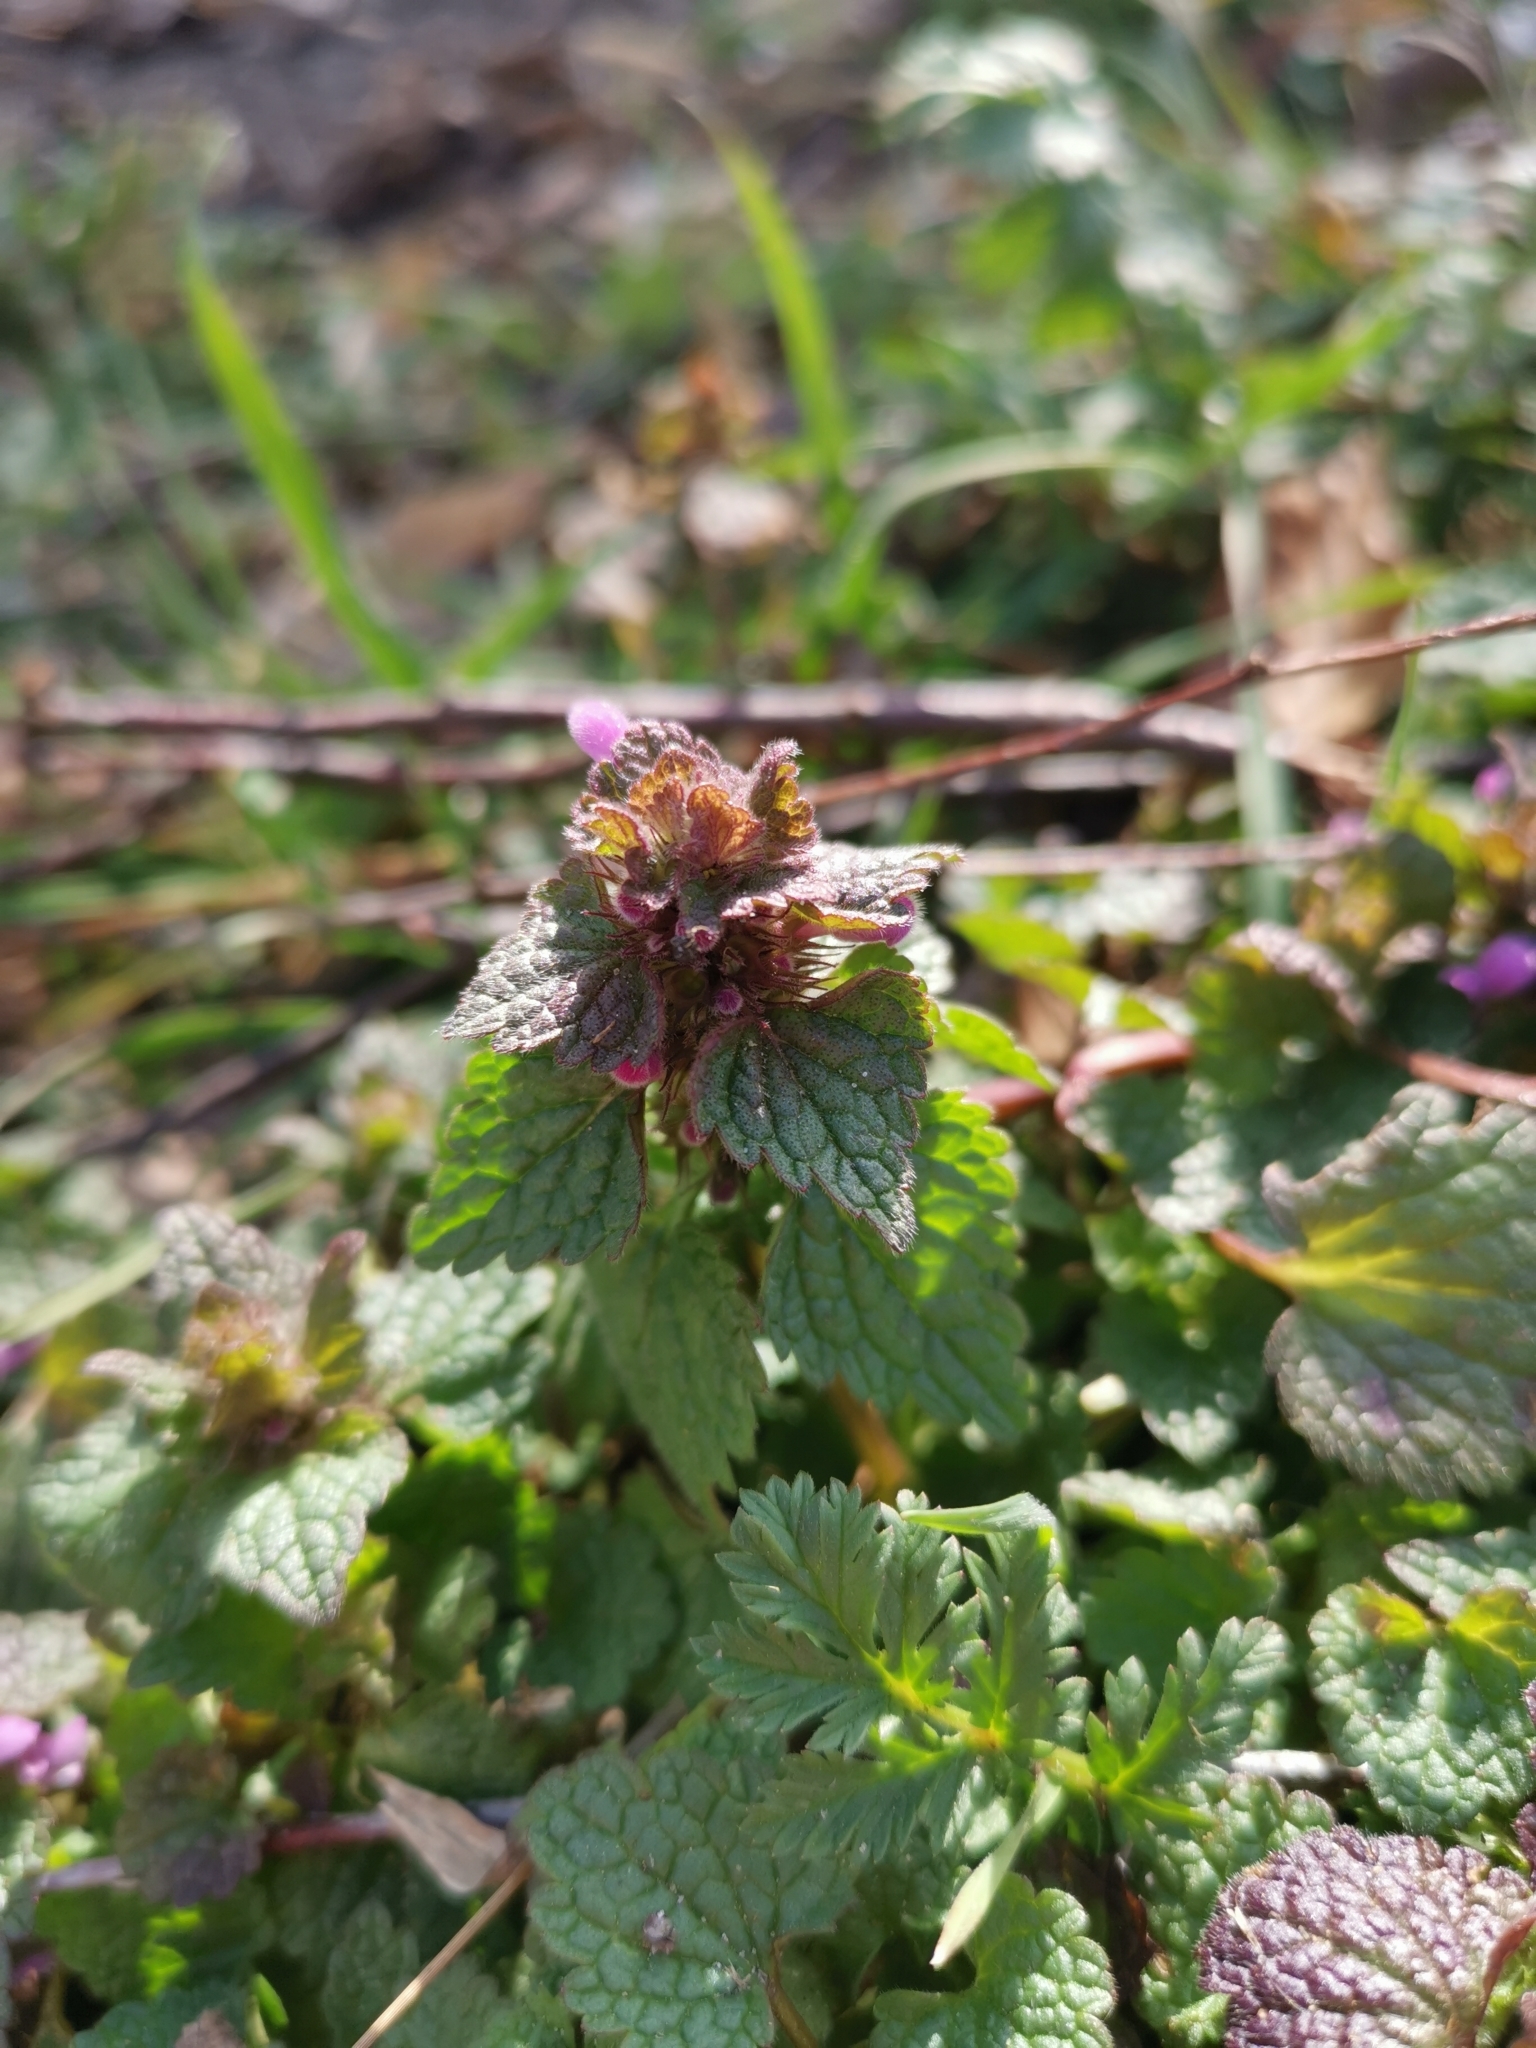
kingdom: Plantae
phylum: Tracheophyta
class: Magnoliopsida
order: Lamiales
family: Lamiaceae
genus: Lamium
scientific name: Lamium purpureum
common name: Red dead-nettle
